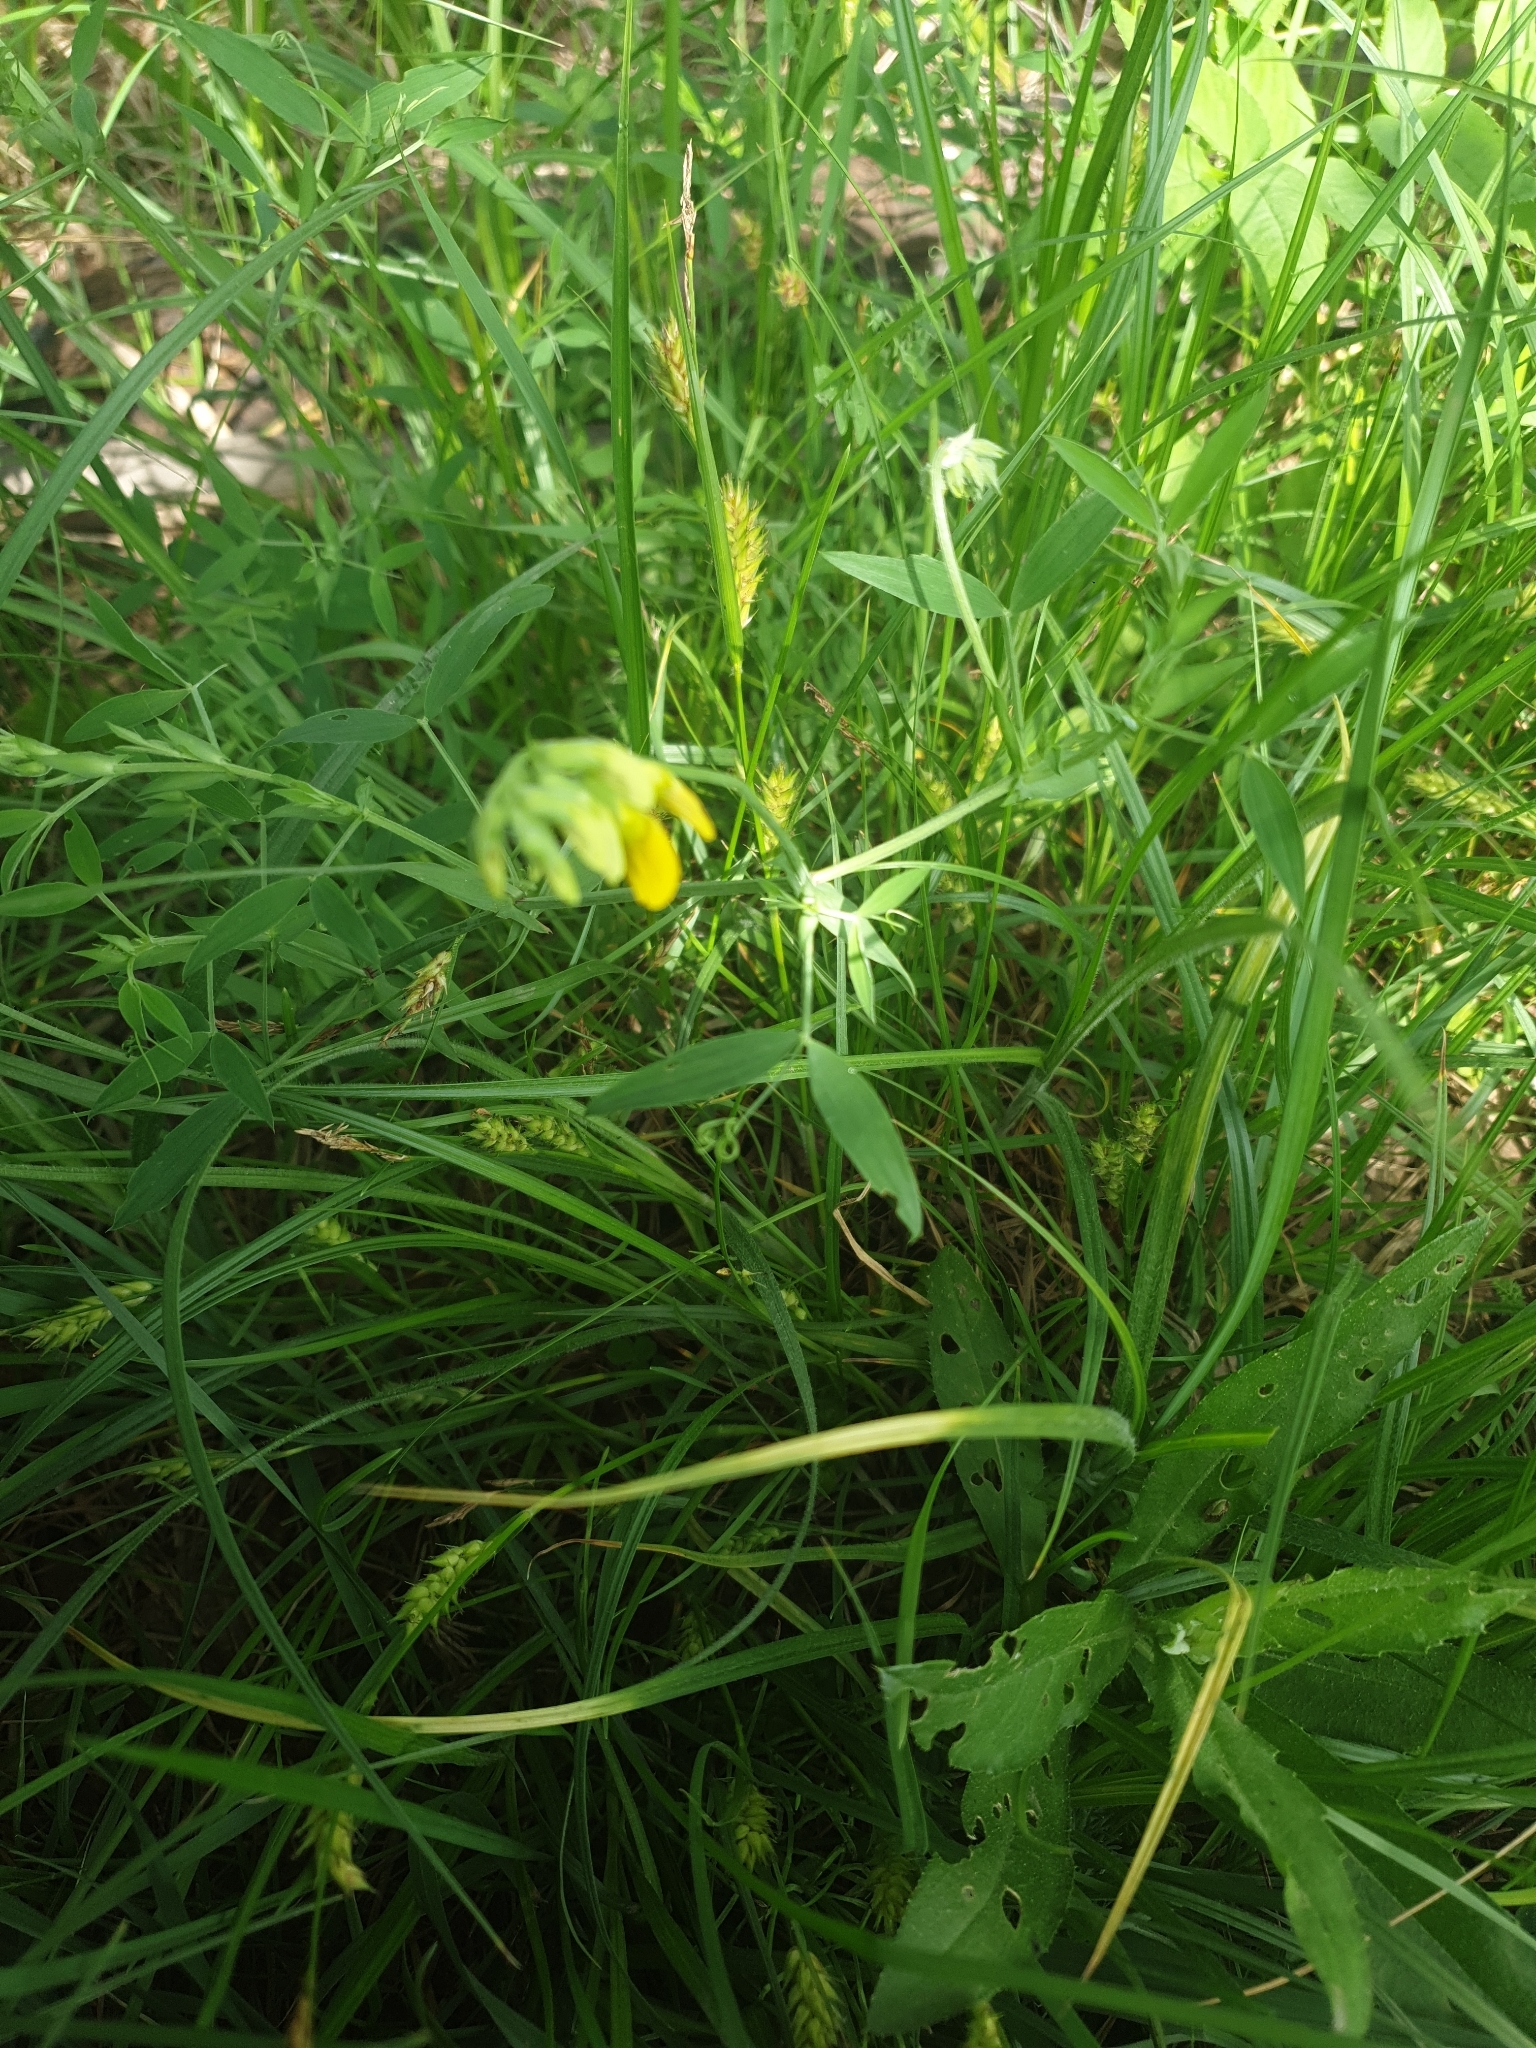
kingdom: Plantae
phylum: Tracheophyta
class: Magnoliopsida
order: Fabales
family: Fabaceae
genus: Lathyrus
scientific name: Lathyrus pratensis
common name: Meadow vetchling
